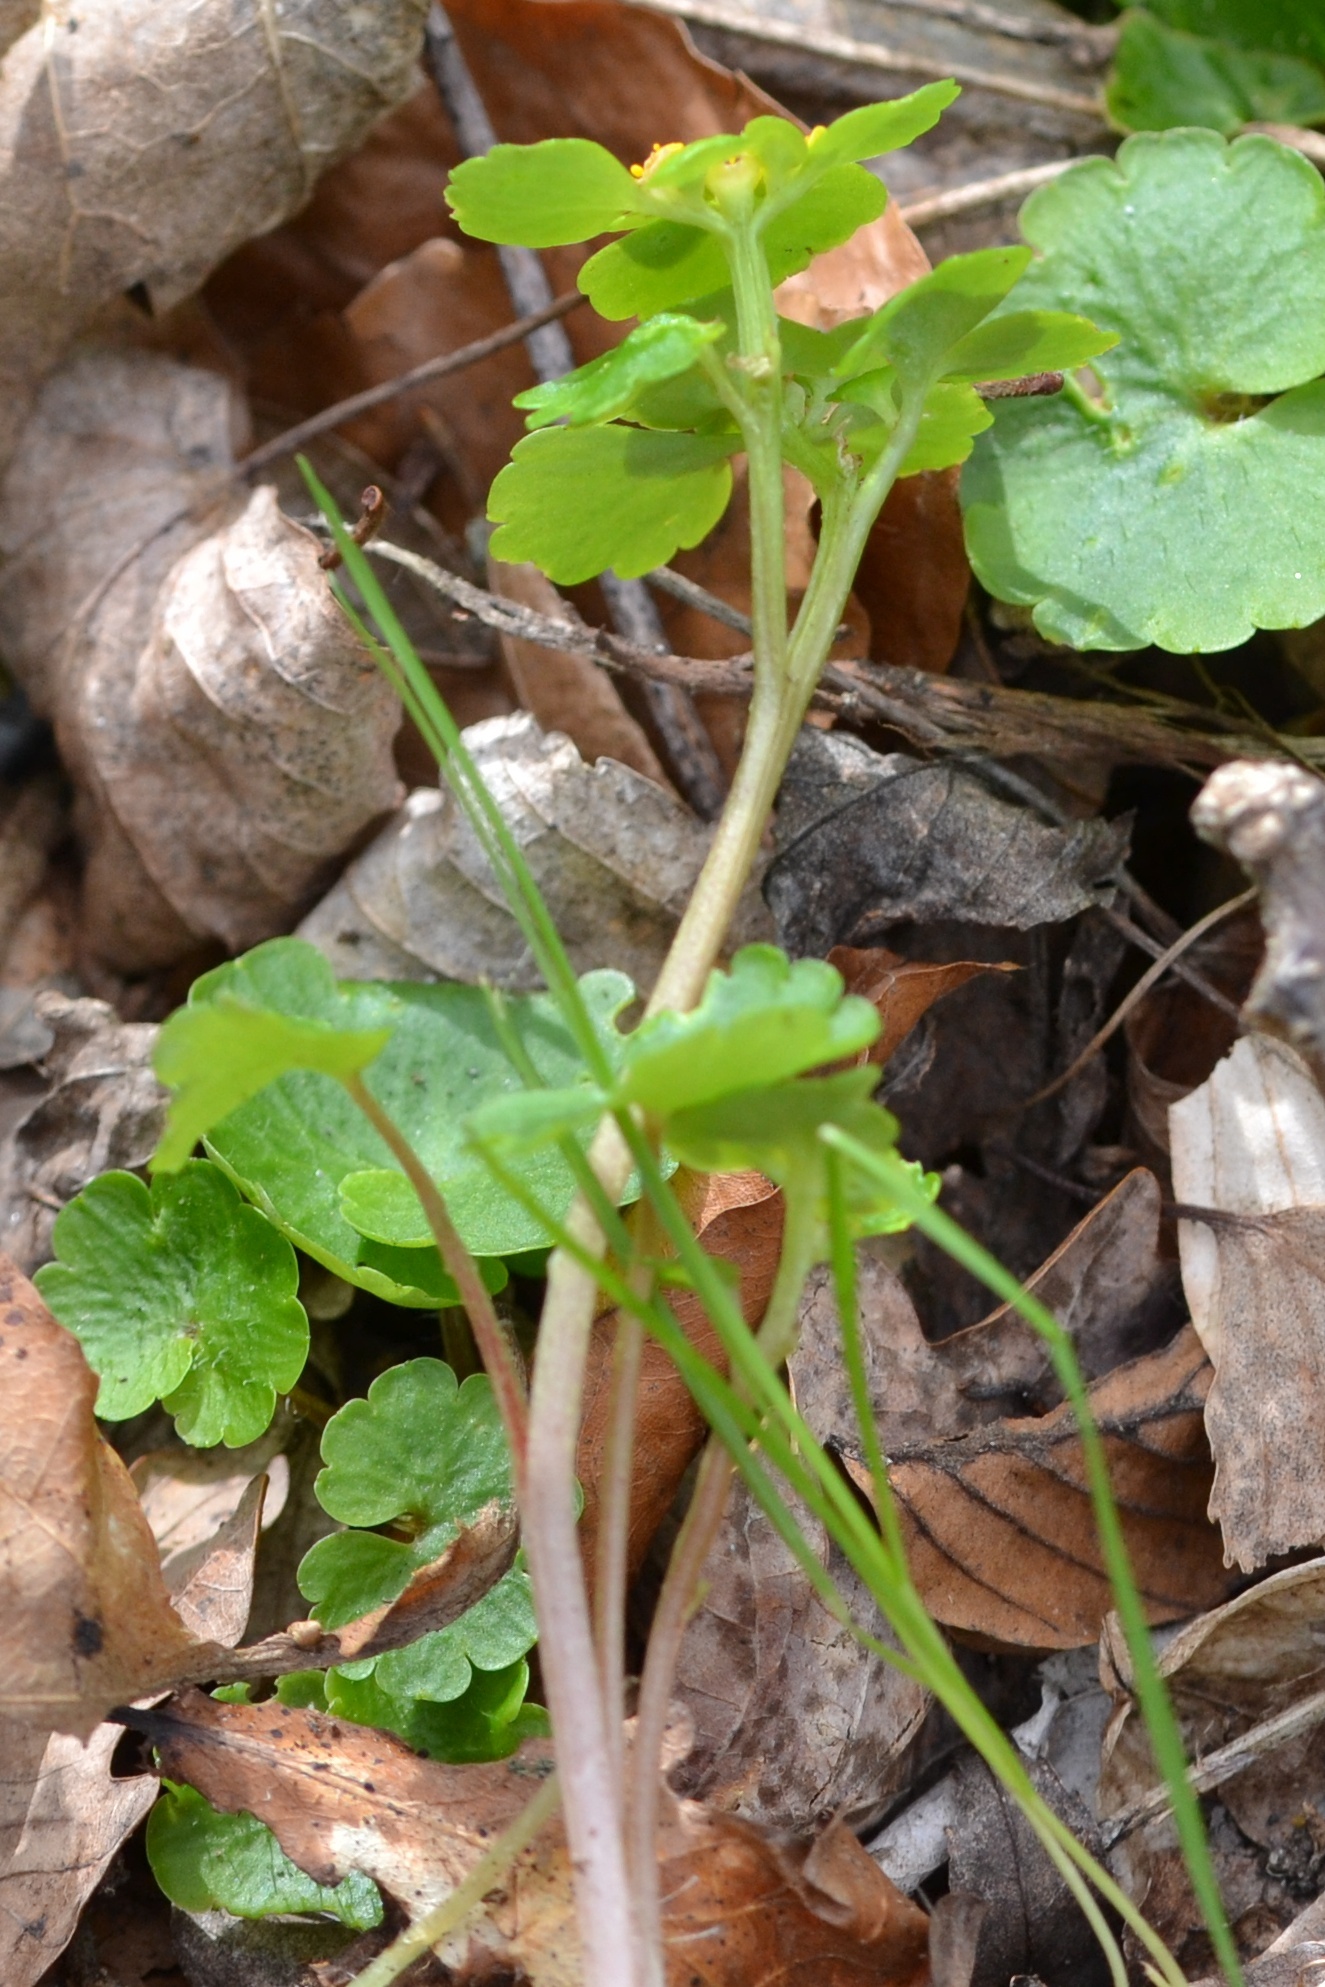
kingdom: Plantae
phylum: Tracheophyta
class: Magnoliopsida
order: Saxifragales
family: Saxifragaceae
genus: Chrysosplenium
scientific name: Chrysosplenium alternifolium
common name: Alternate-leaved golden-saxifrage
